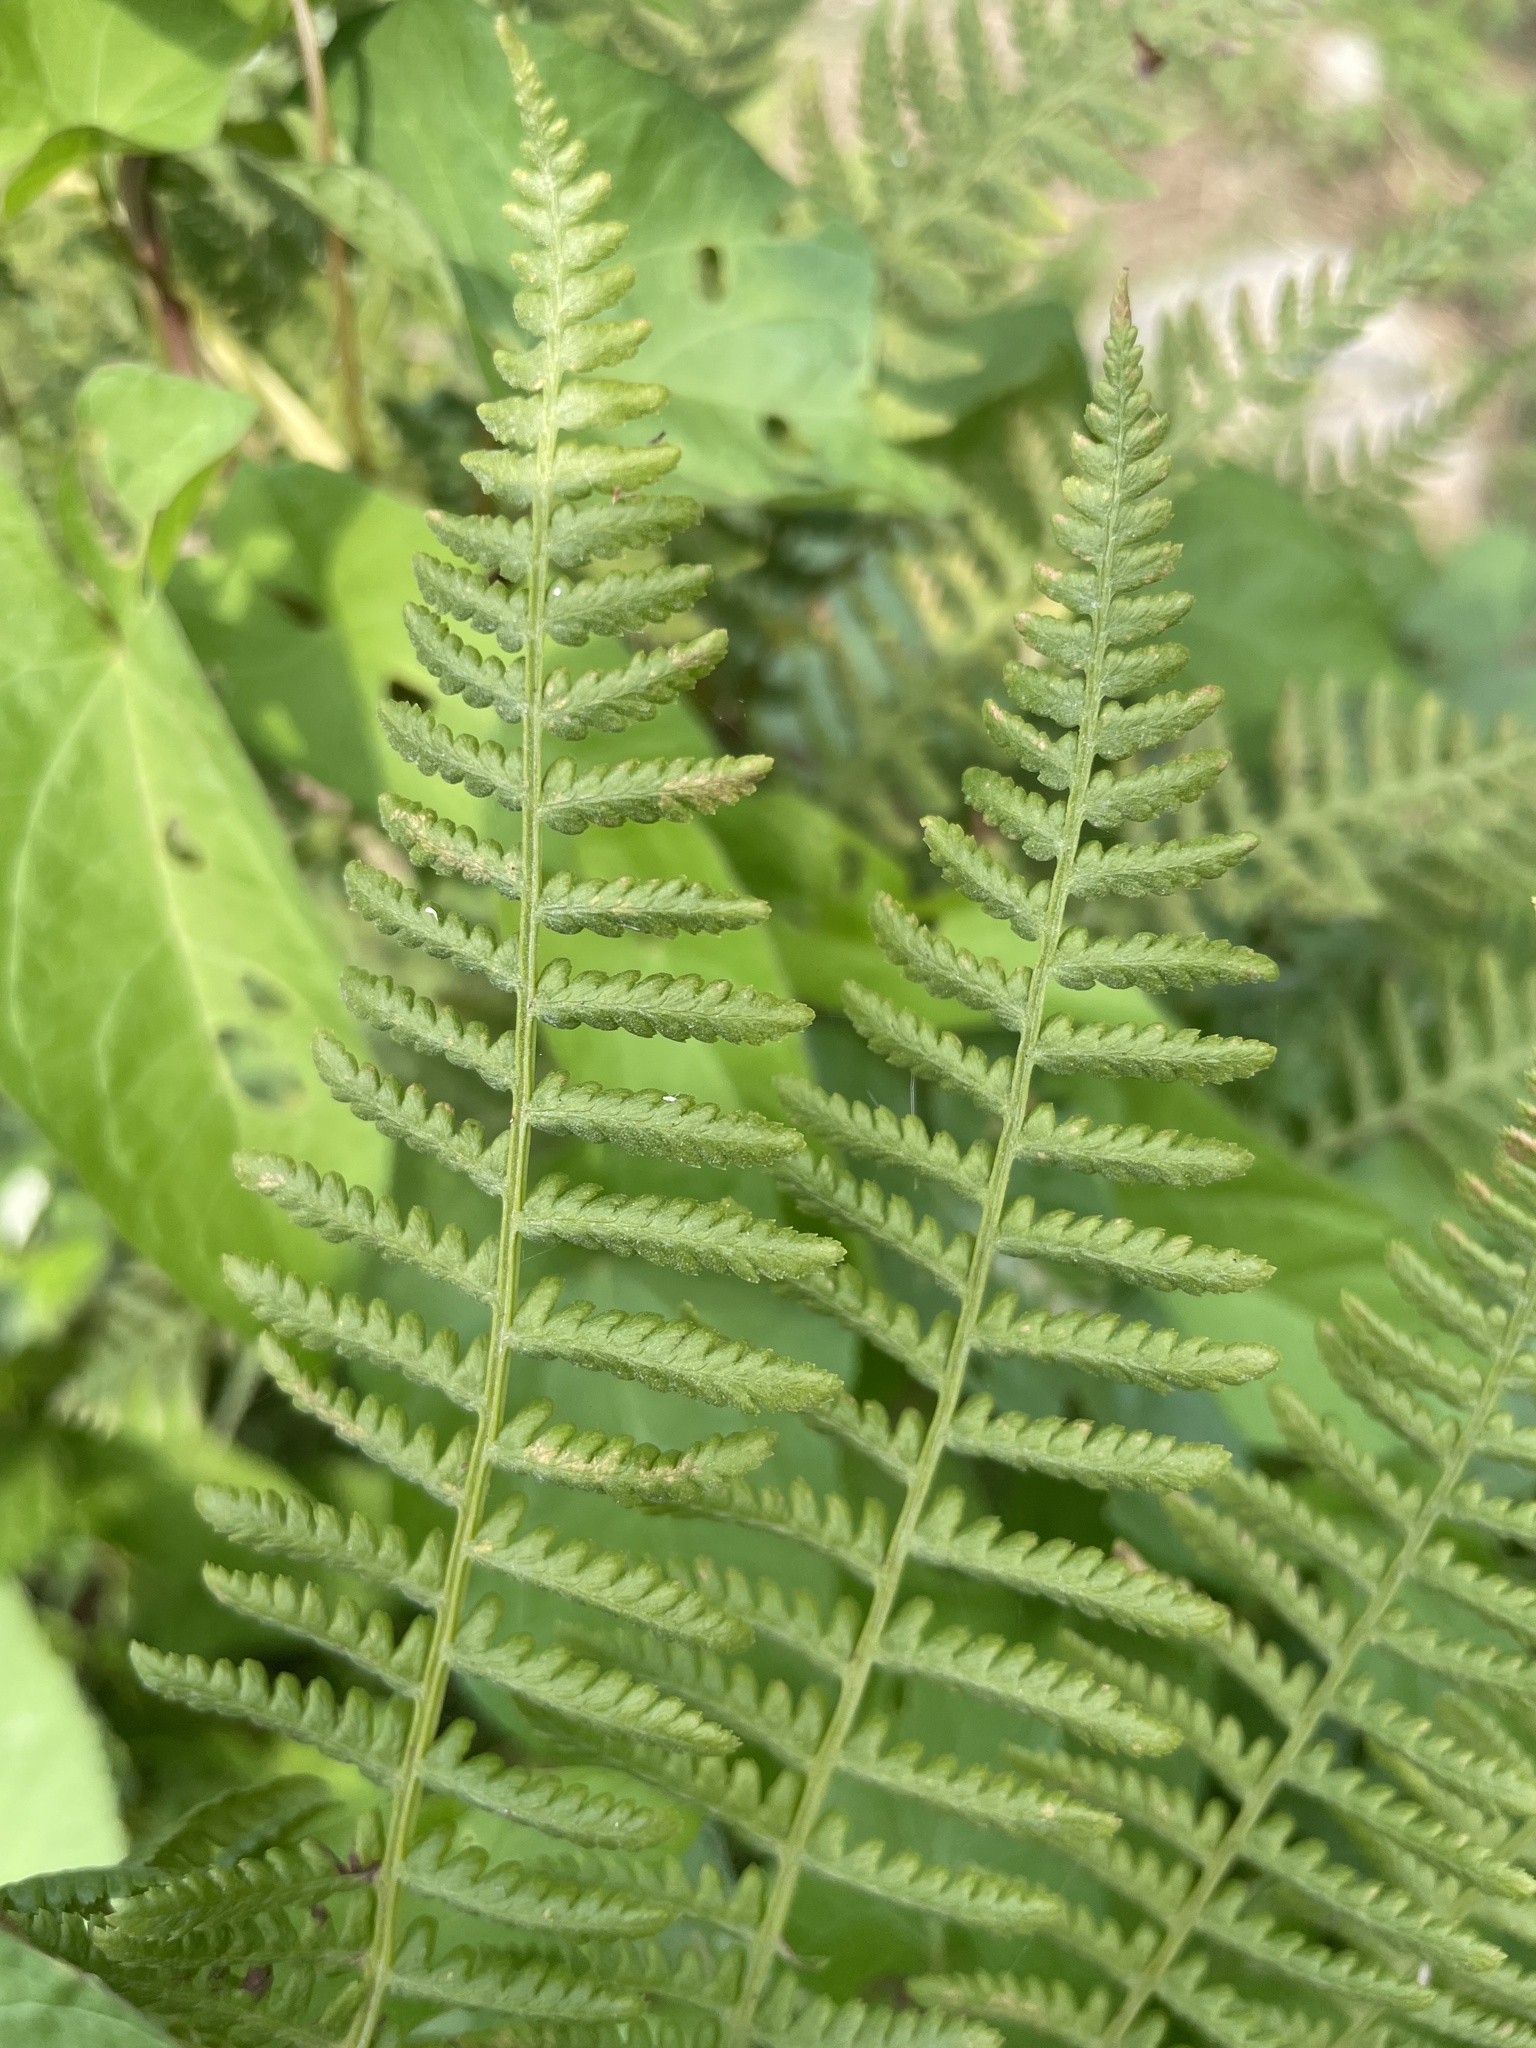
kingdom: Plantae
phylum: Tracheophyta
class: Polypodiopsida
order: Polypodiales
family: Athyriaceae
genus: Athyrium
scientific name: Athyrium filix-femina
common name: Lady fern
